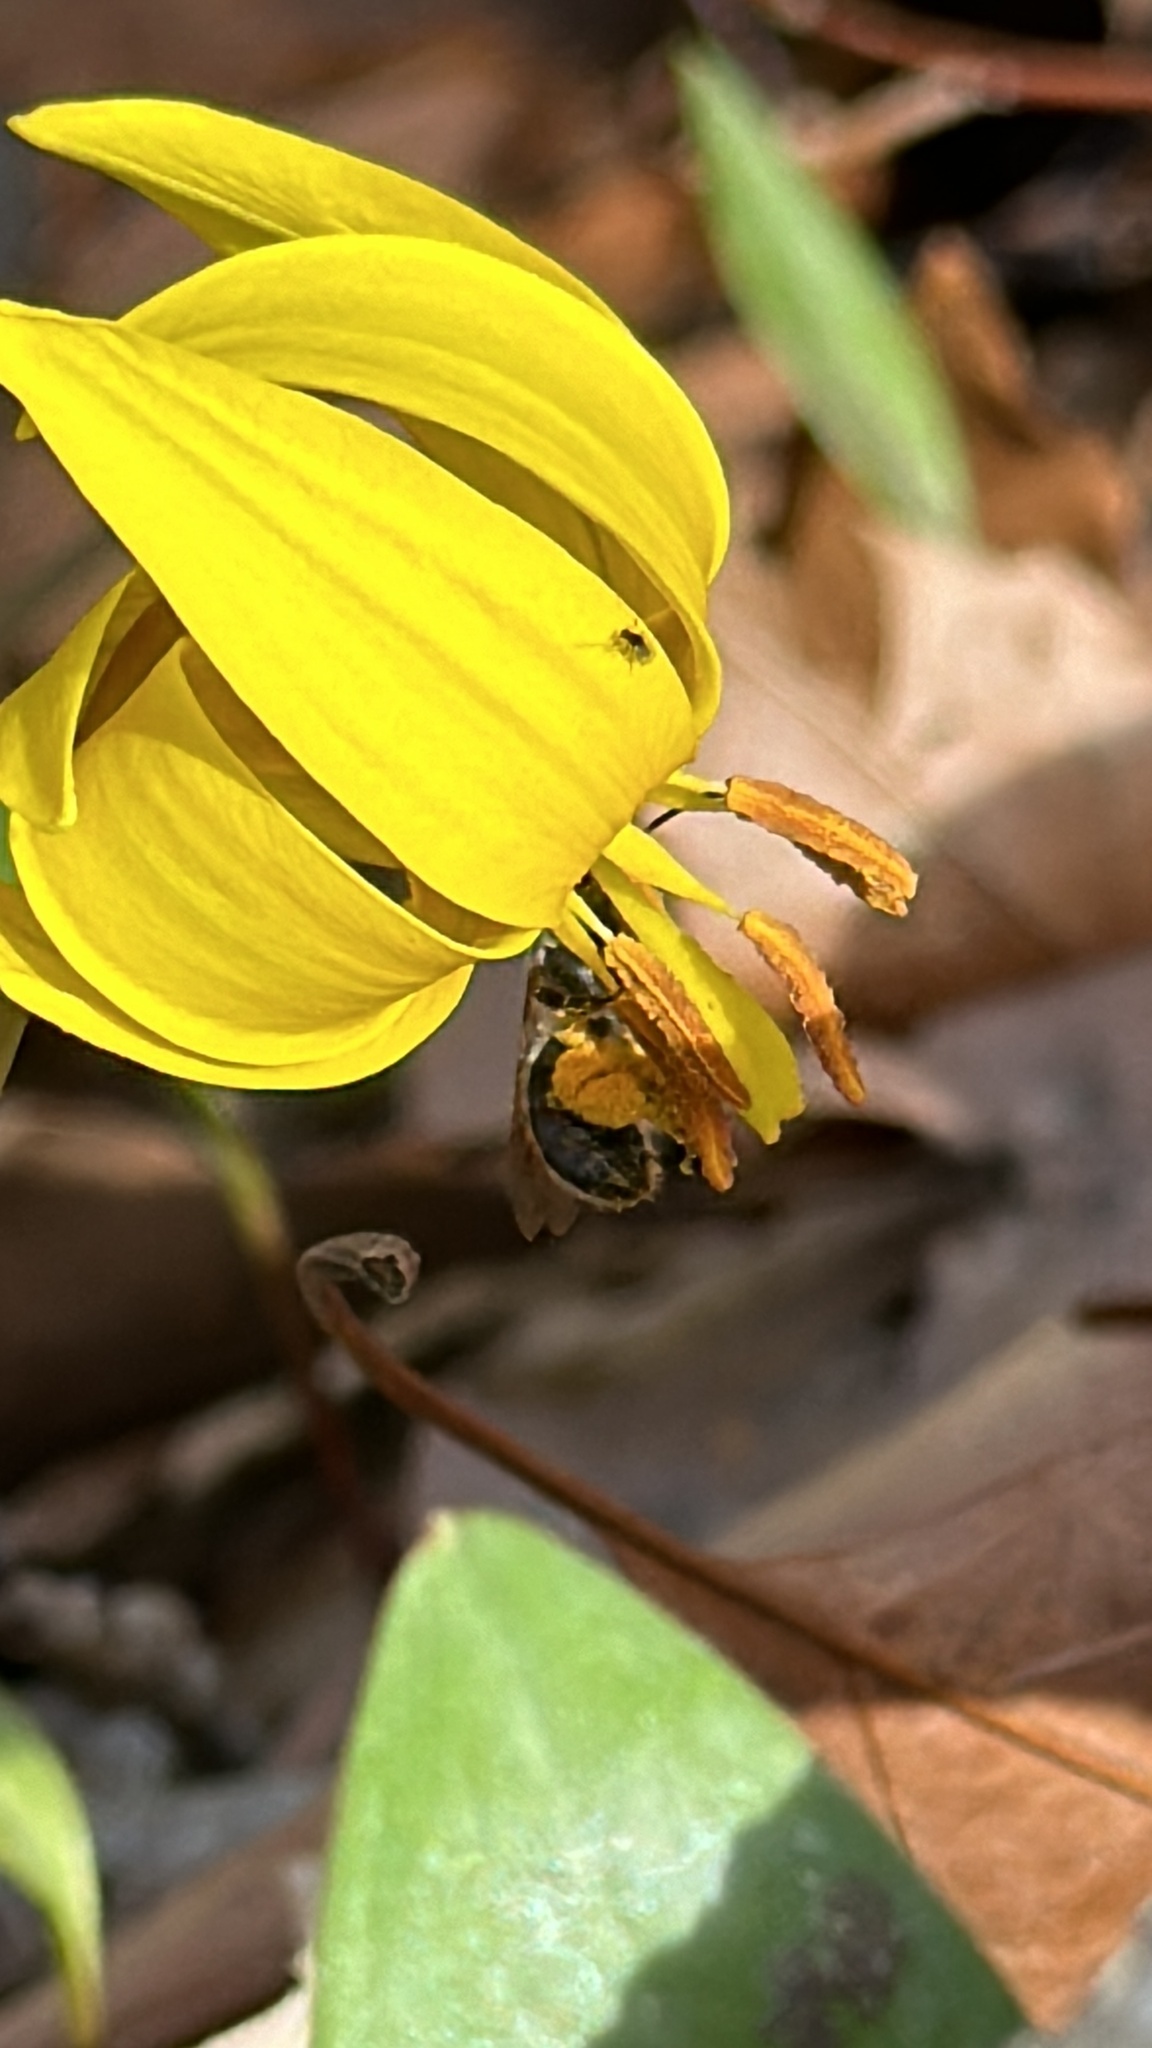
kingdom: Plantae
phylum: Tracheophyta
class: Liliopsida
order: Liliales
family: Liliaceae
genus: Erythronium
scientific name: Erythronium americanum
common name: Yellow adder's-tongue
